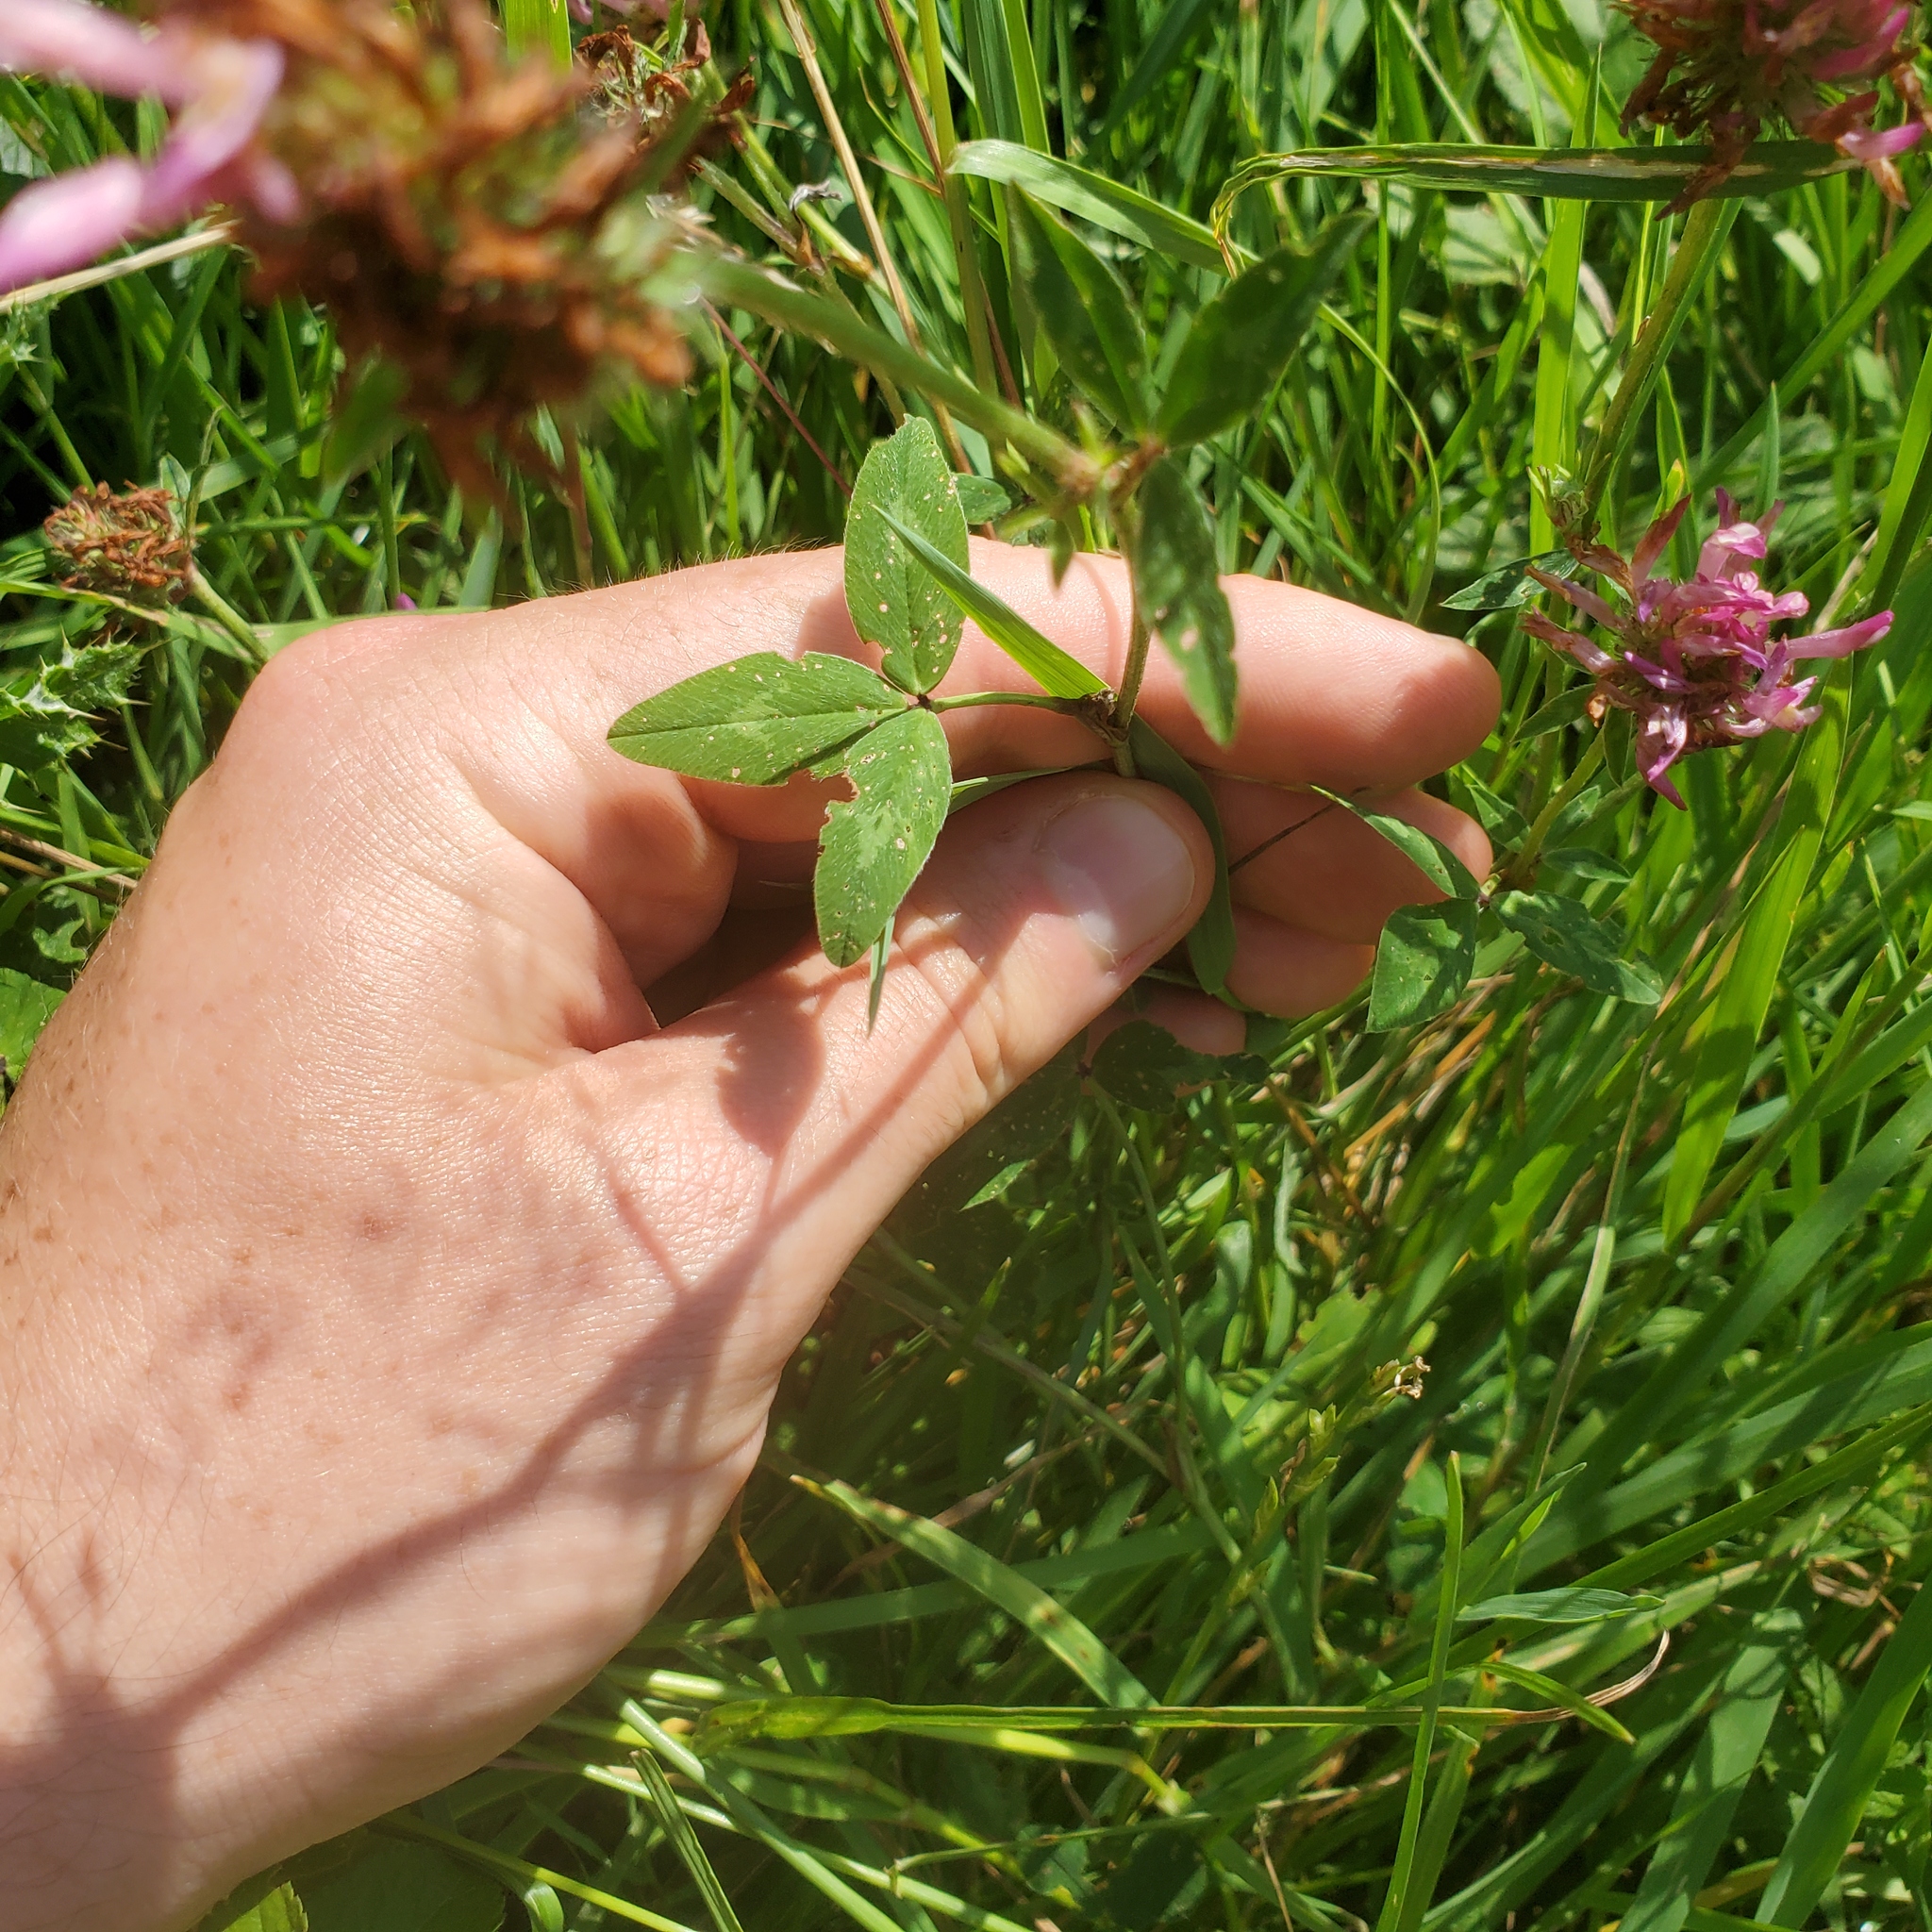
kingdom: Plantae
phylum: Tracheophyta
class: Magnoliopsida
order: Fabales
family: Fabaceae
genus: Trifolium
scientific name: Trifolium pratense
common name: Red clover
